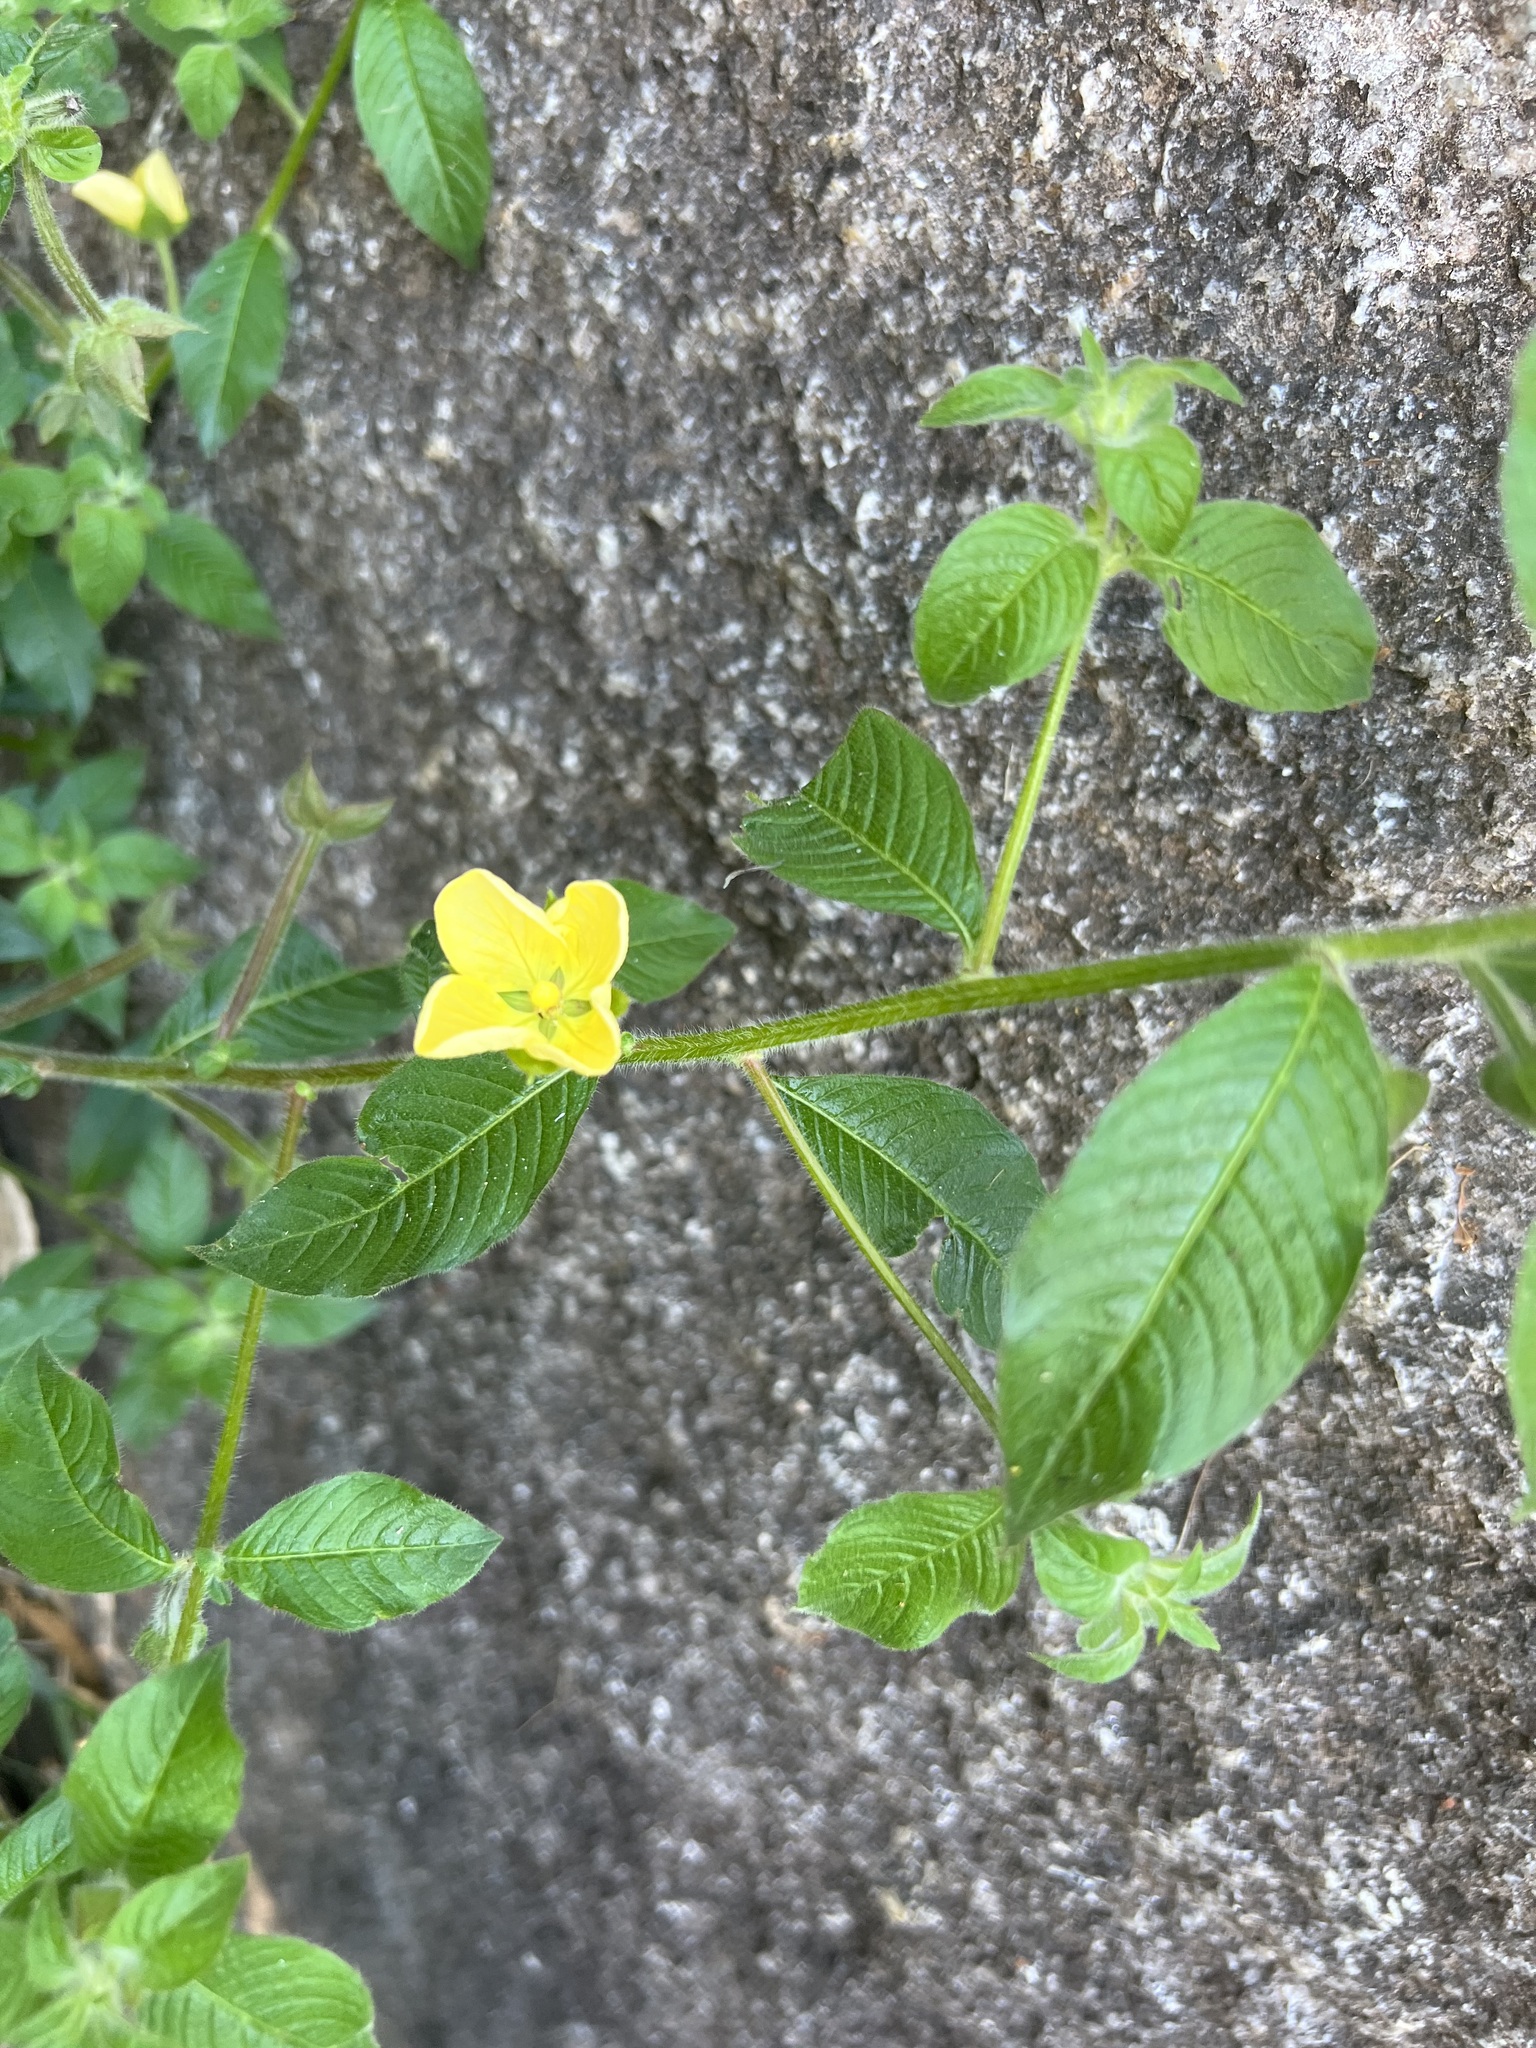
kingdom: Plantae
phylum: Tracheophyta
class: Magnoliopsida
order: Myrtales
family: Onagraceae
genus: Ludwigia
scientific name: Ludwigia octovalvis
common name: Water-primrose
